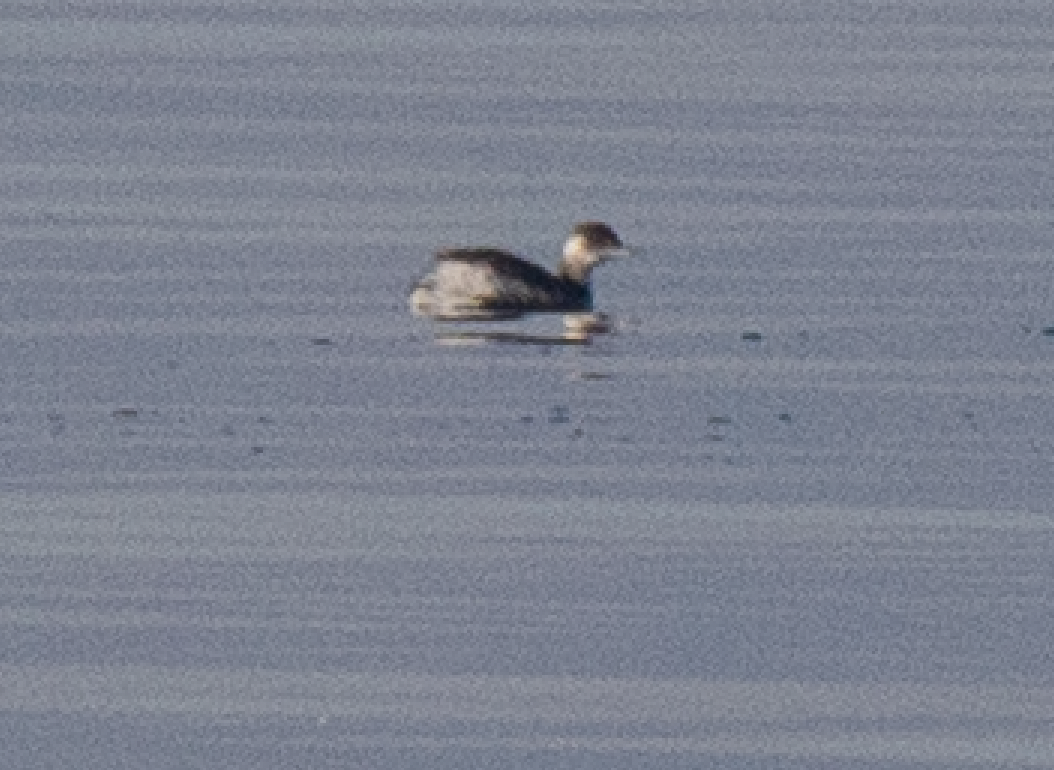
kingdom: Animalia
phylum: Chordata
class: Aves
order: Podicipediformes
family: Podicipedidae
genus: Tachybaptus
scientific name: Tachybaptus ruficollis
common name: Little grebe
